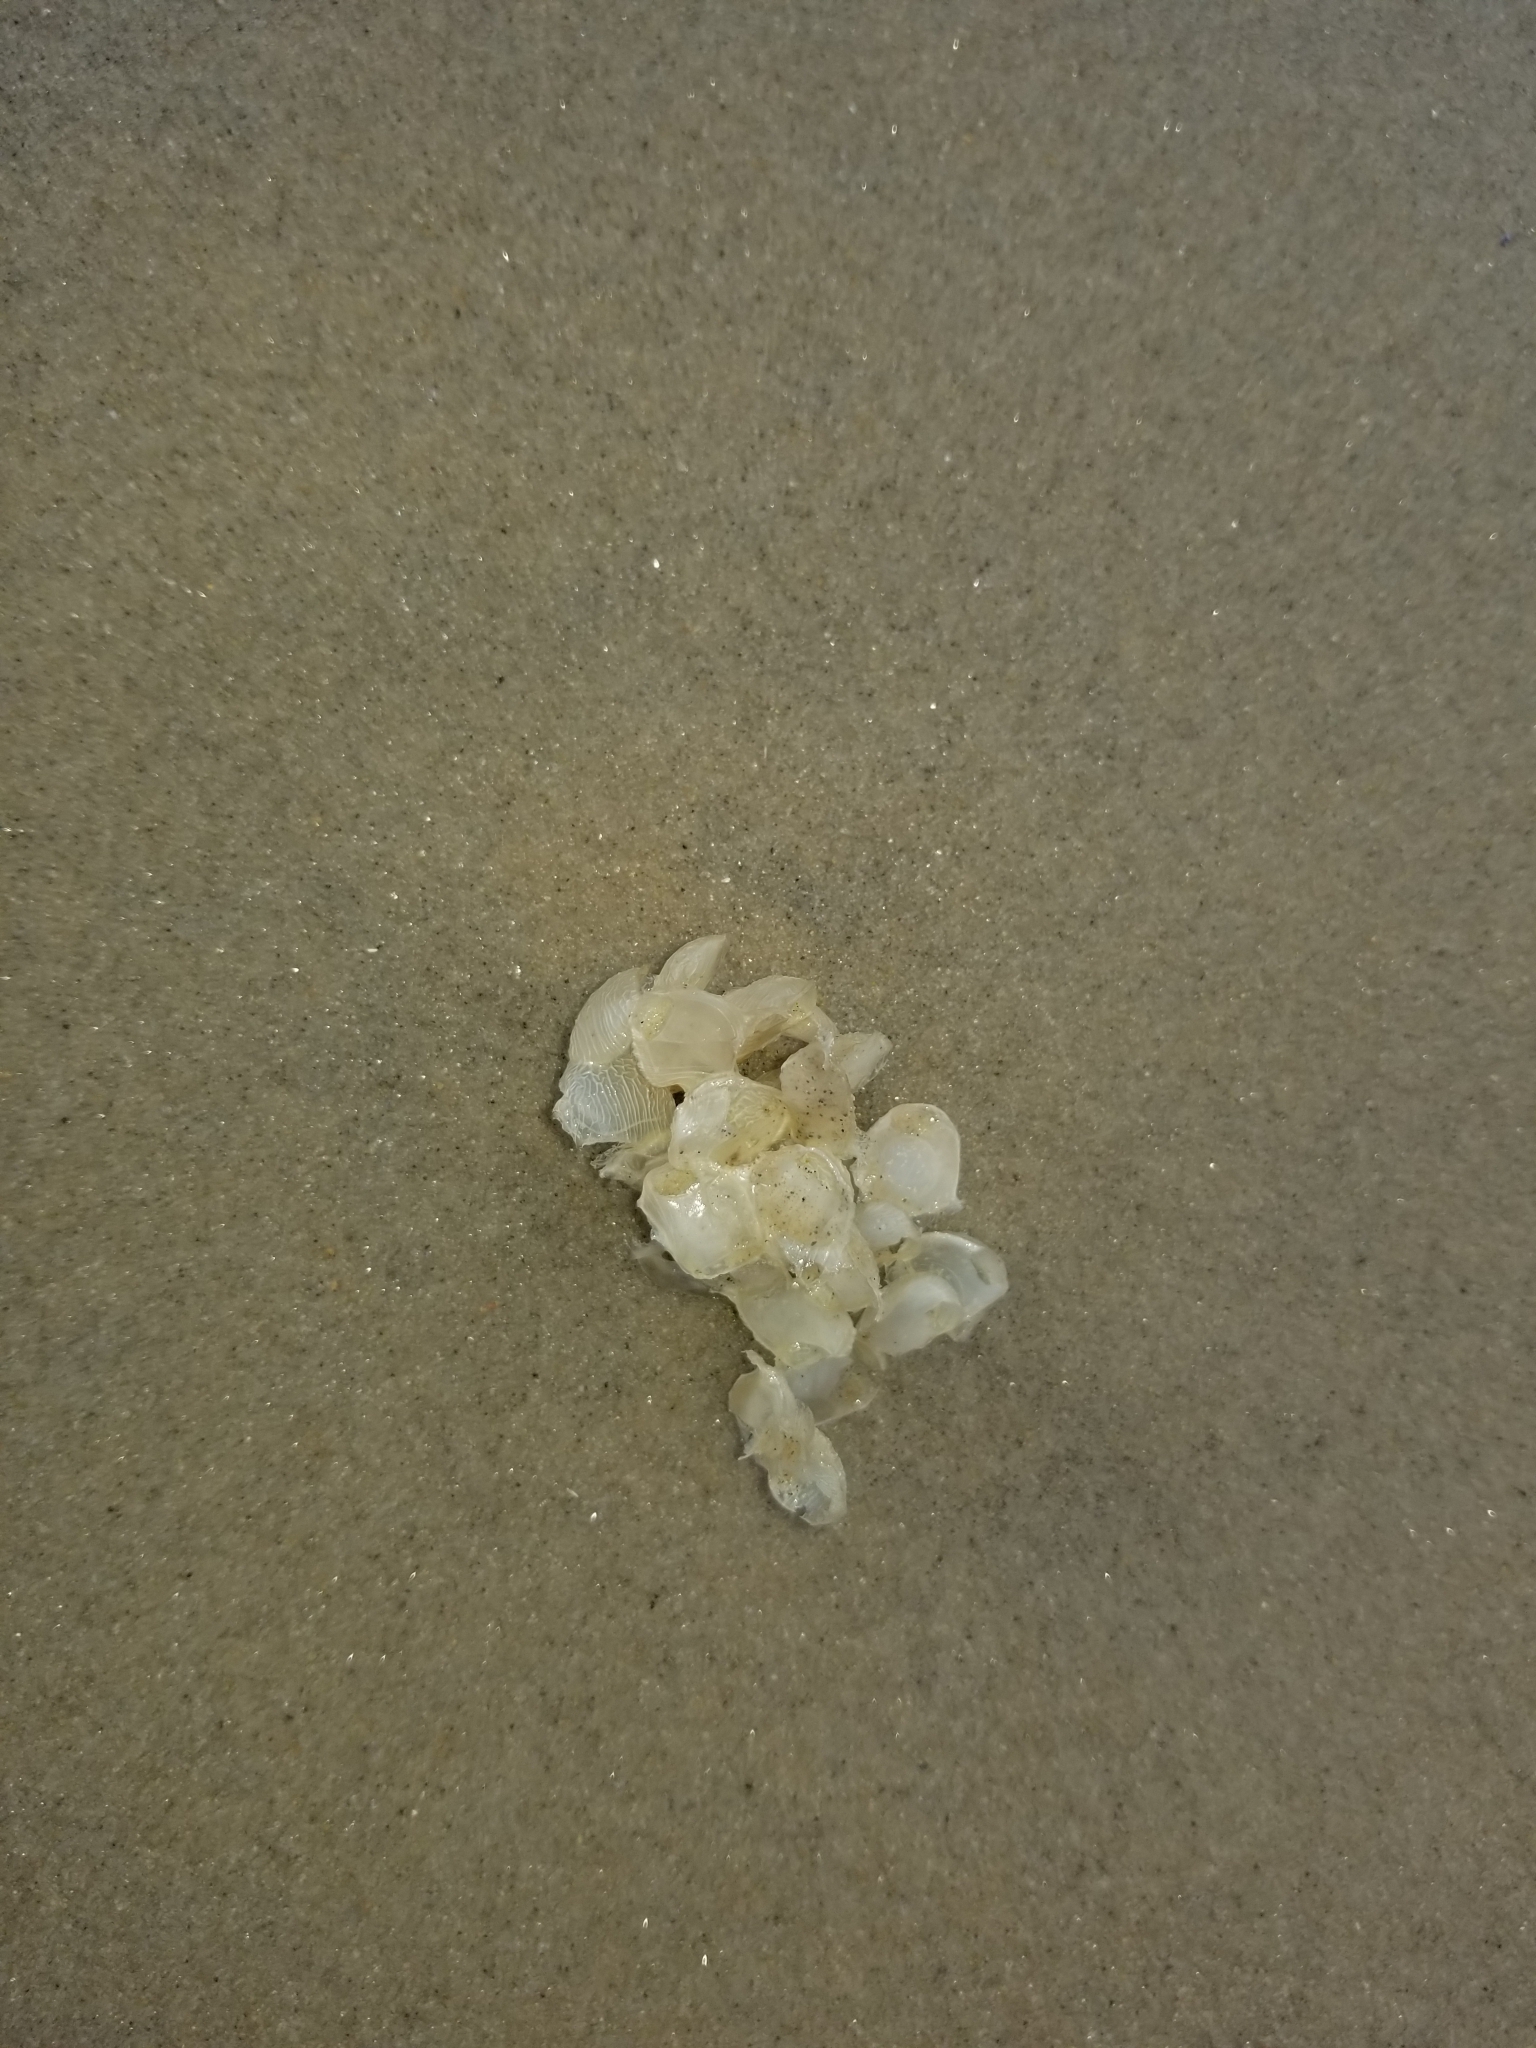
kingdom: Animalia
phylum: Mollusca
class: Gastropoda
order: Neogastropoda
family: Buccinidae
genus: Buccinum
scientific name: Buccinum undatum
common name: Common whelk
